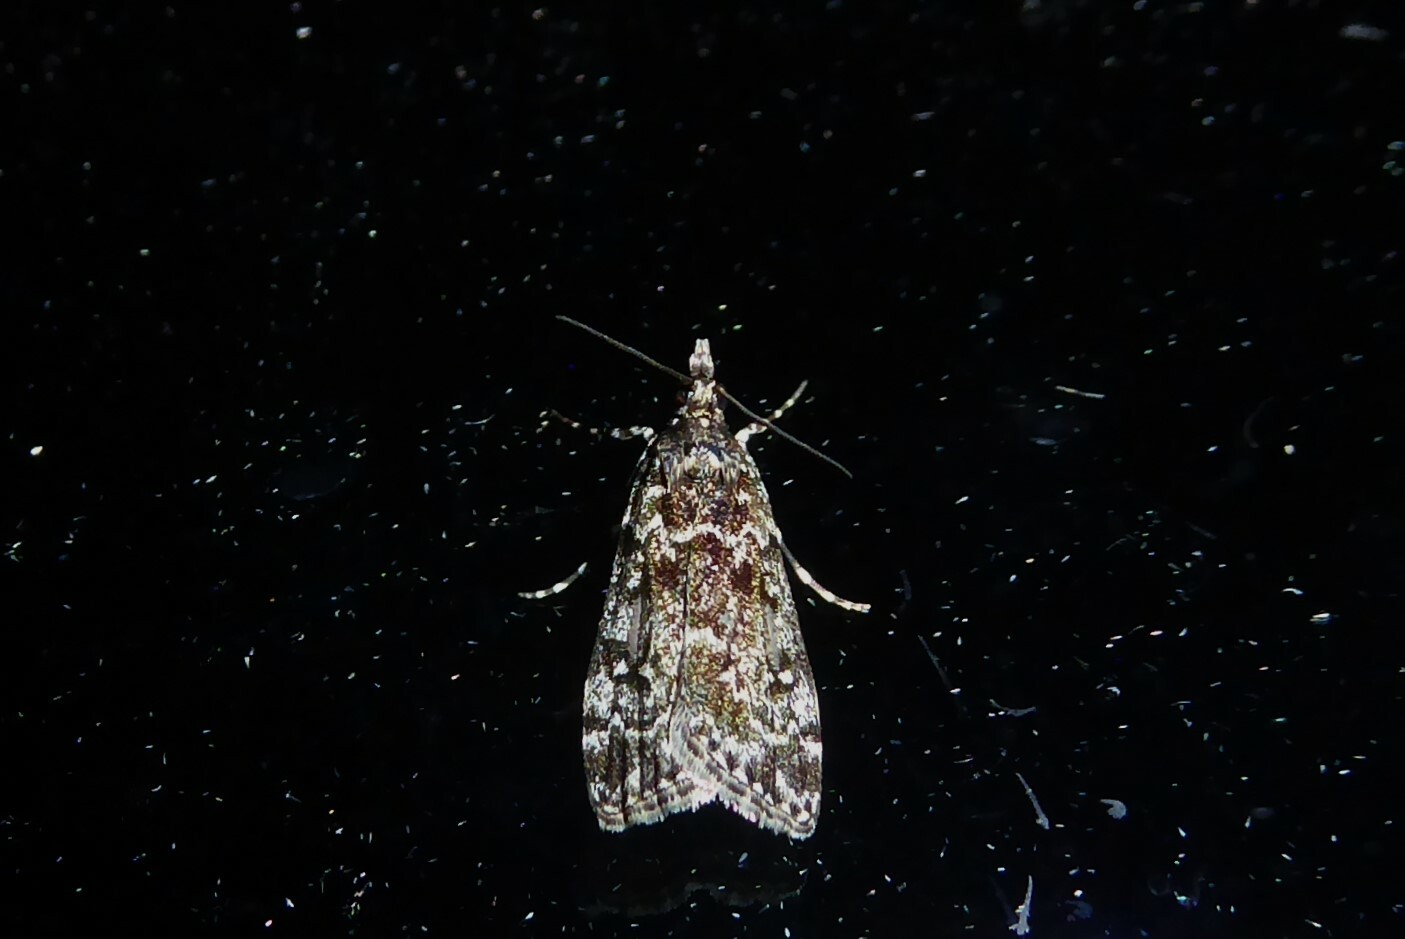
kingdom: Animalia
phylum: Arthropoda
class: Insecta
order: Lepidoptera
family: Crambidae
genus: Eudonia
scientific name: Eudonia philerga
